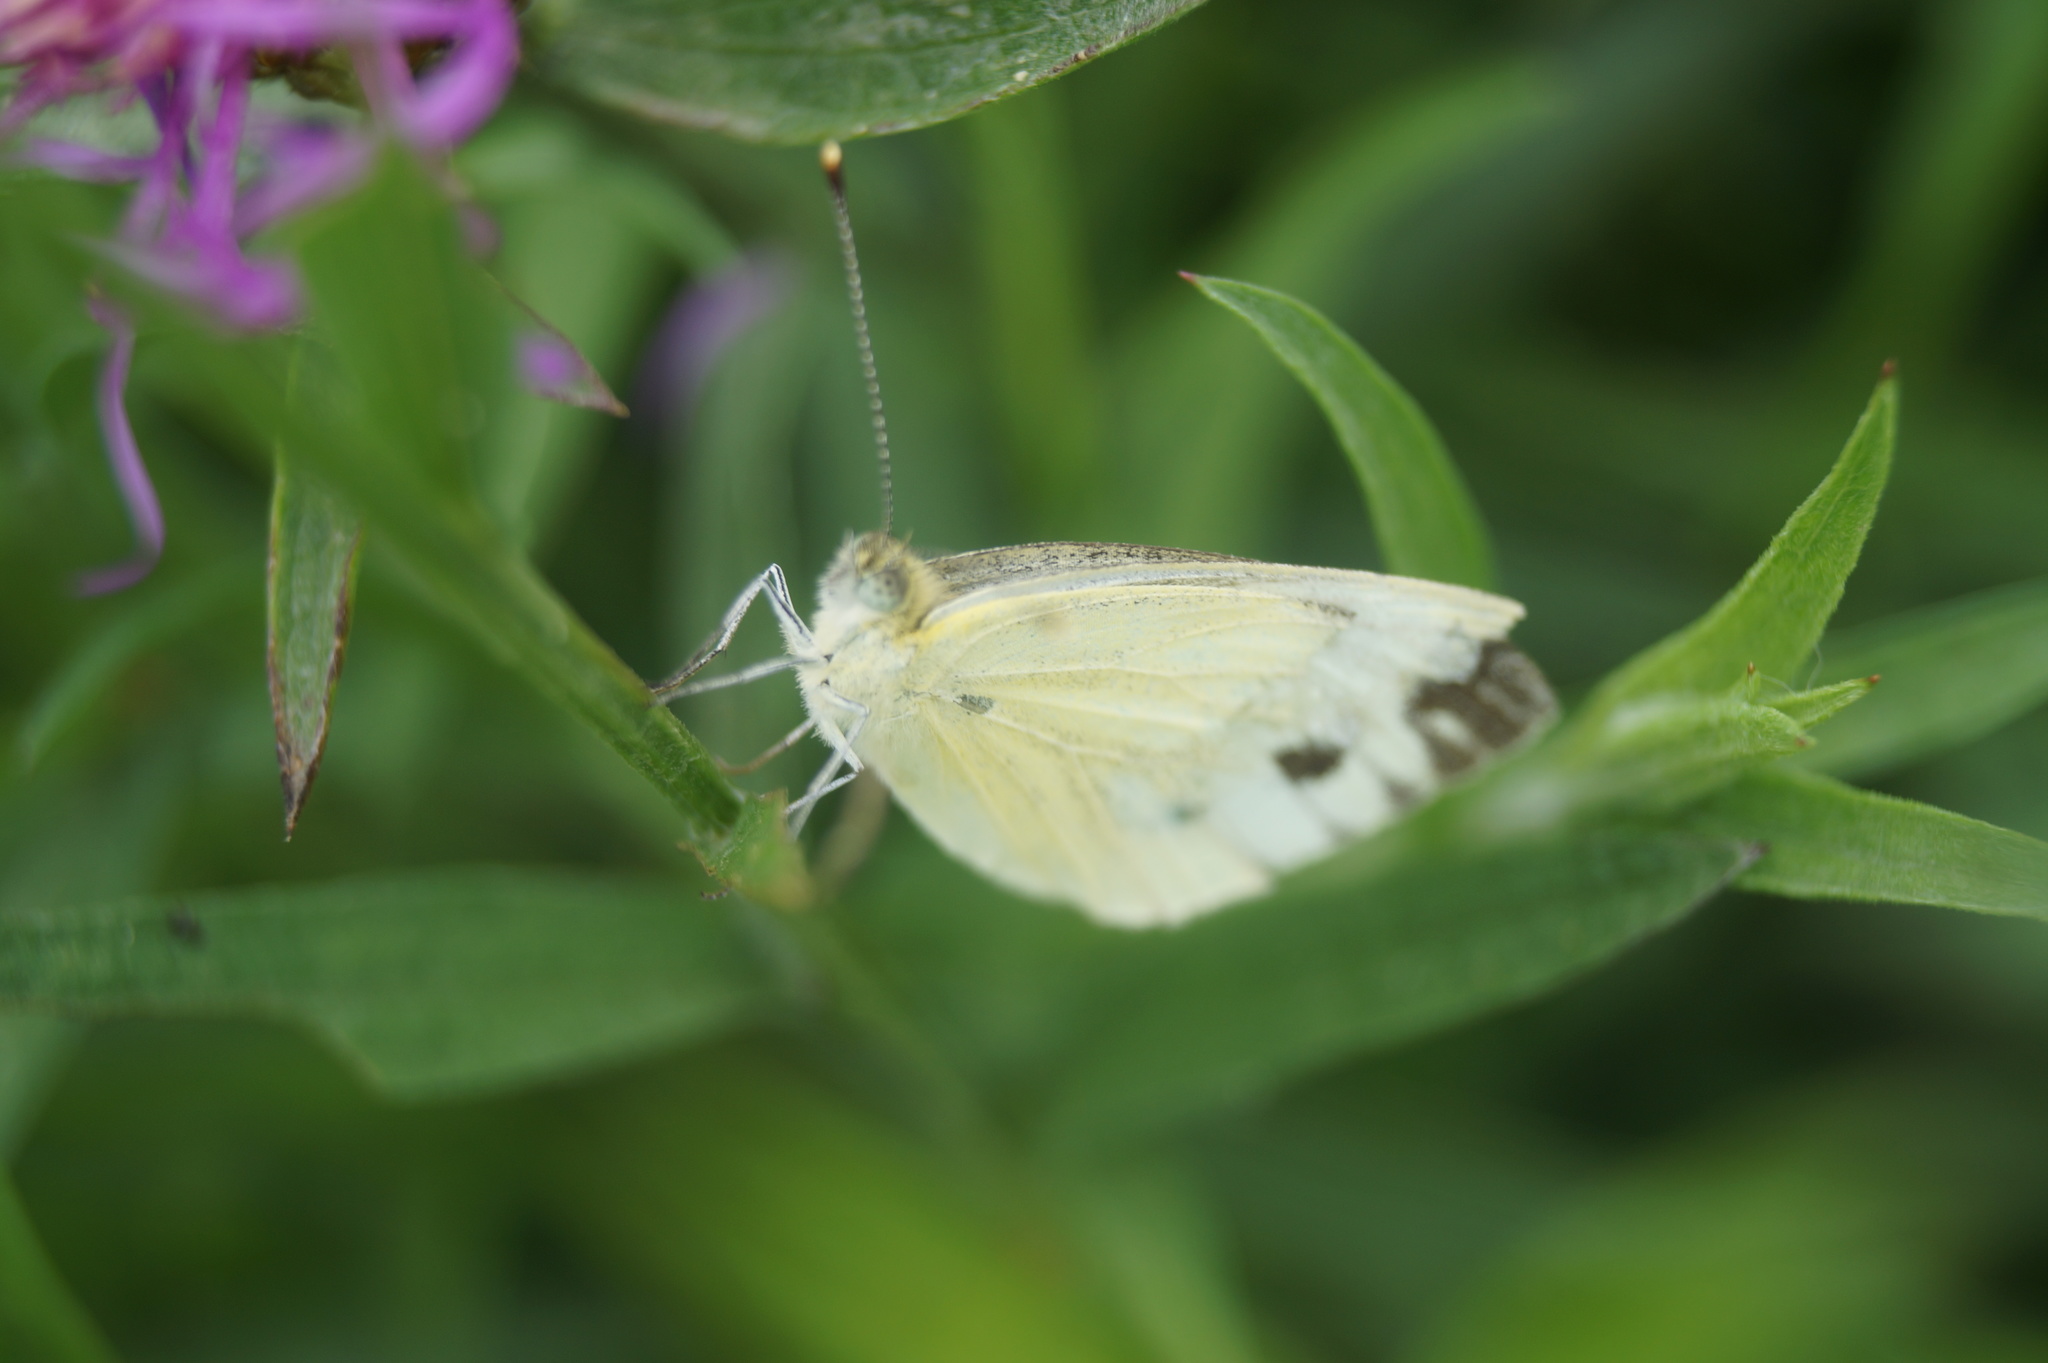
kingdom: Animalia
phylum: Arthropoda
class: Insecta
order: Lepidoptera
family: Pieridae
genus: Pieris
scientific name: Pieris napi
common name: Green-veined white
